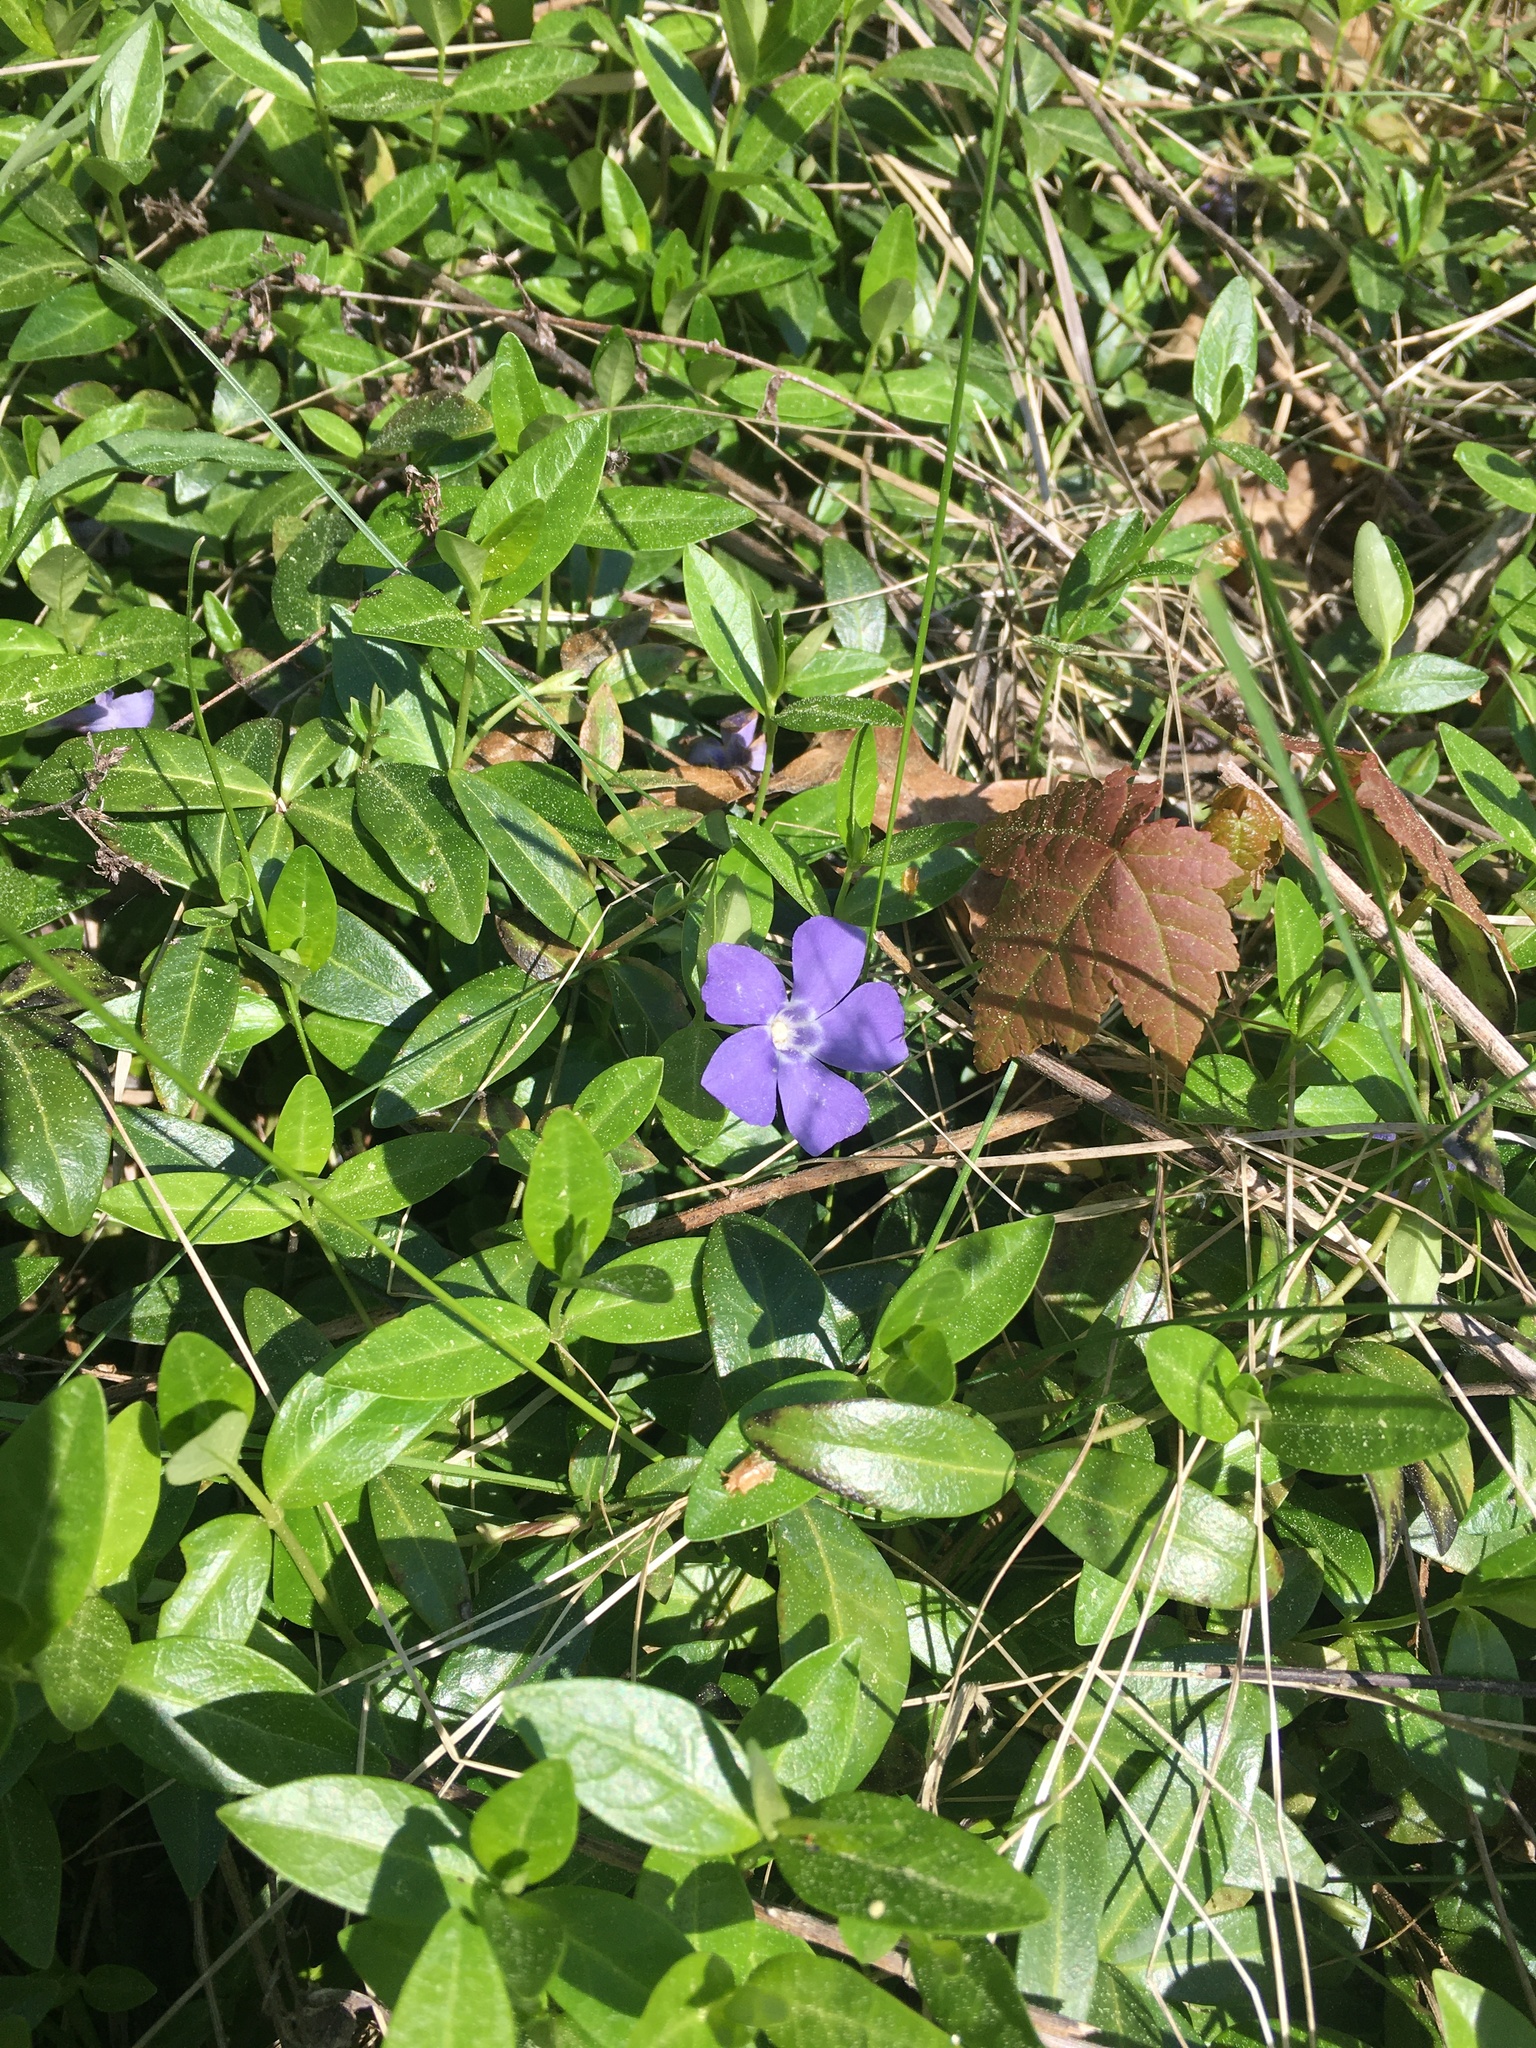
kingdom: Plantae
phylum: Tracheophyta
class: Magnoliopsida
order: Gentianales
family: Apocynaceae
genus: Vinca
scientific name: Vinca minor
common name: Lesser periwinkle
